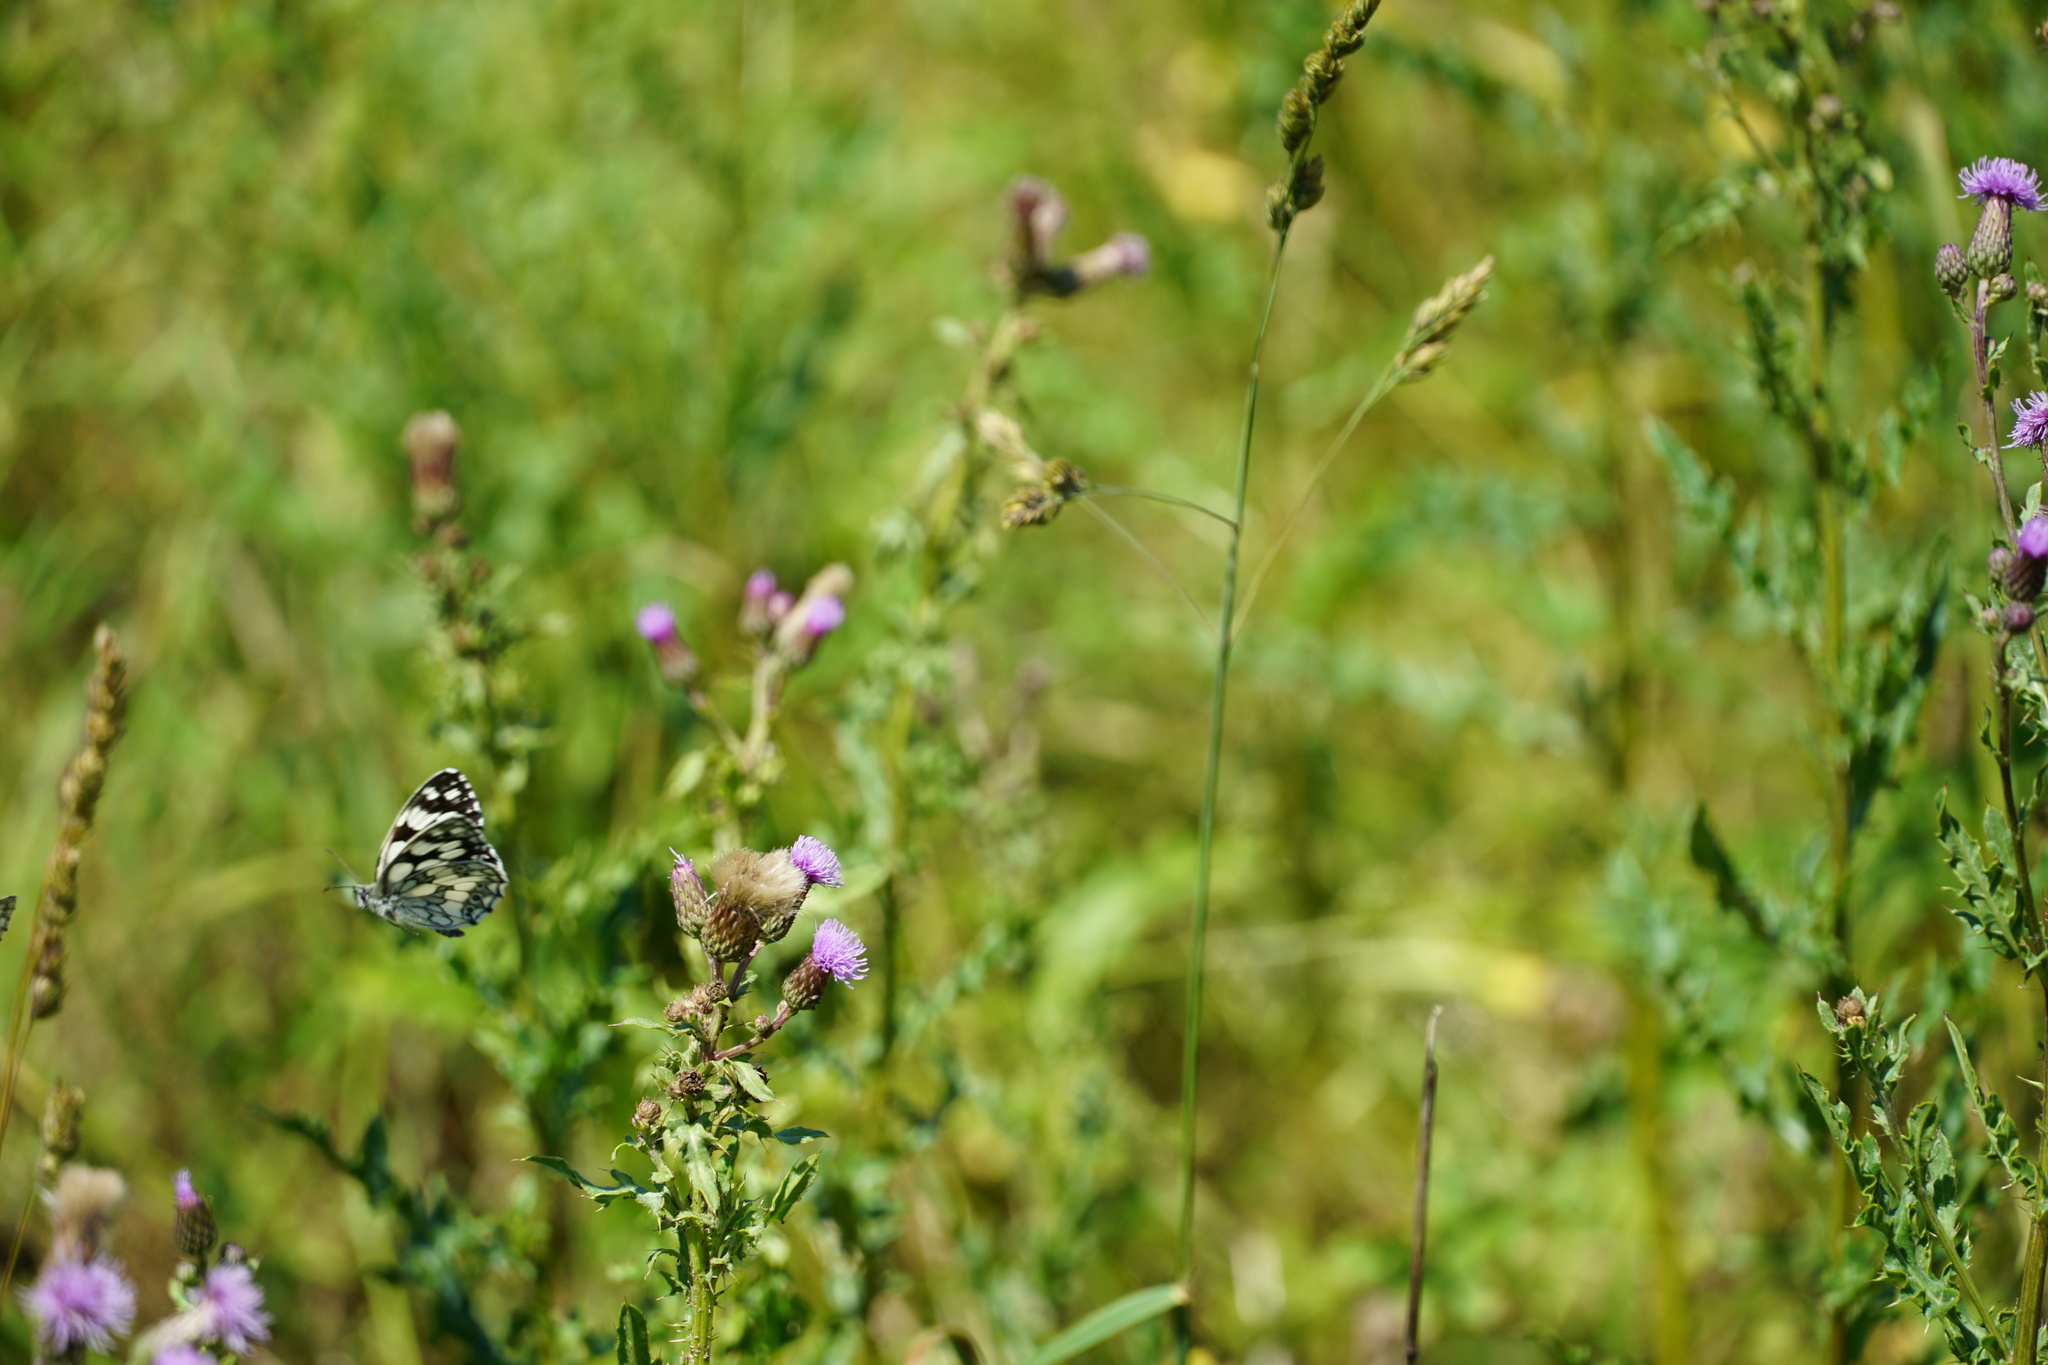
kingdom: Animalia
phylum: Arthropoda
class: Insecta
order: Lepidoptera
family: Nymphalidae
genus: Melanargia
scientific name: Melanargia galathea
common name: Marbled white
